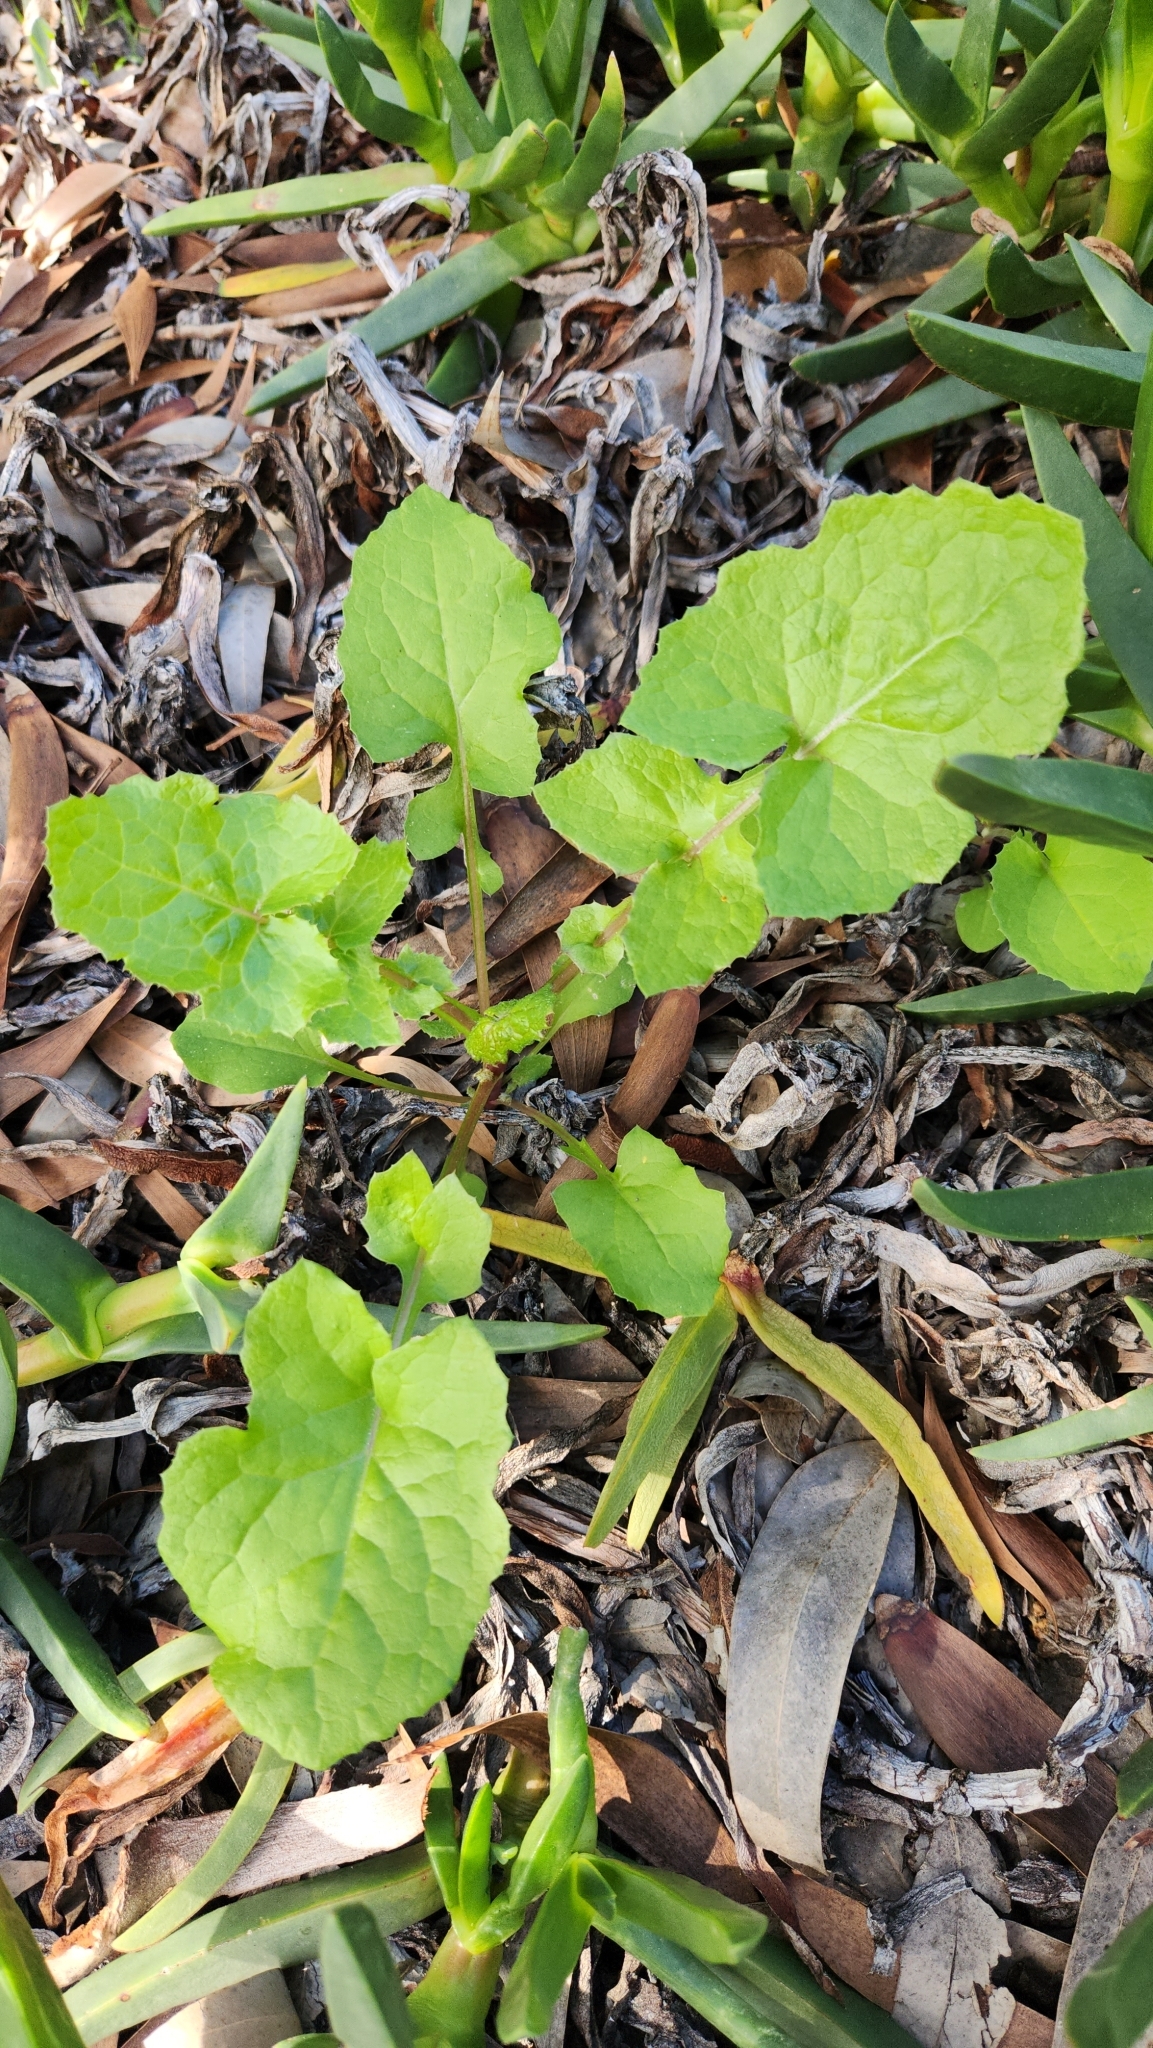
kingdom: Plantae
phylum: Tracheophyta
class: Magnoliopsida
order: Asterales
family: Asteraceae
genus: Sonchus
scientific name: Sonchus oleraceus
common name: Common sowthistle
